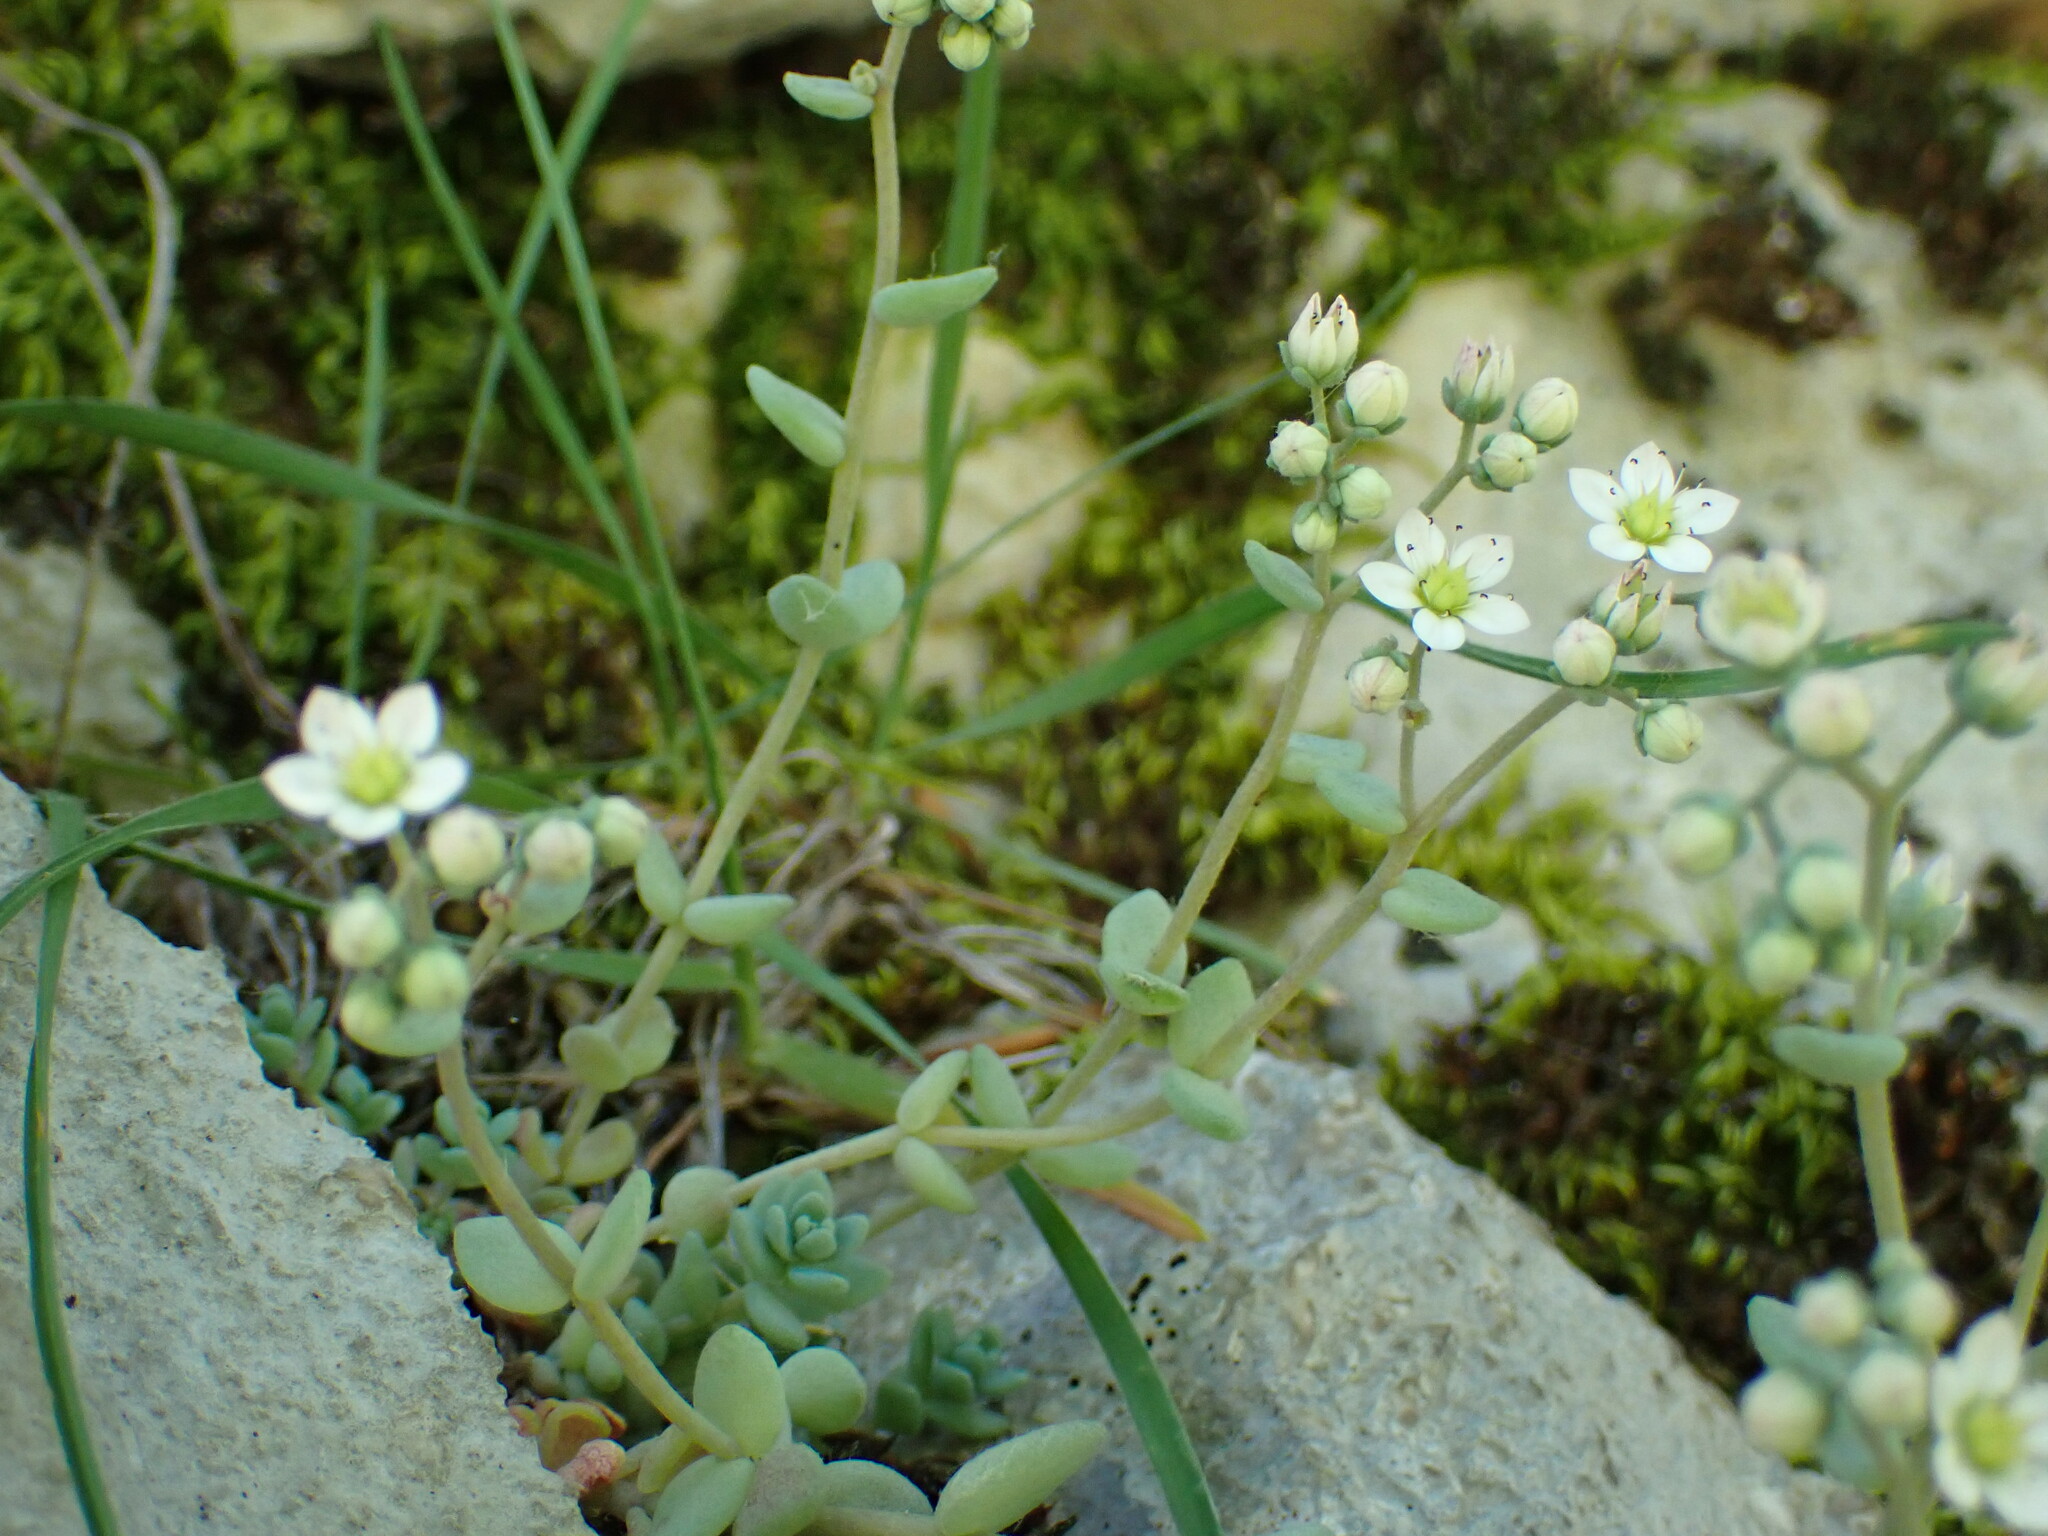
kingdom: Plantae
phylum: Tracheophyta
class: Magnoliopsida
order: Saxifragales
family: Crassulaceae
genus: Sedum
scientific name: Sedum dasyphyllum
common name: Thick-leaf stonecrop
